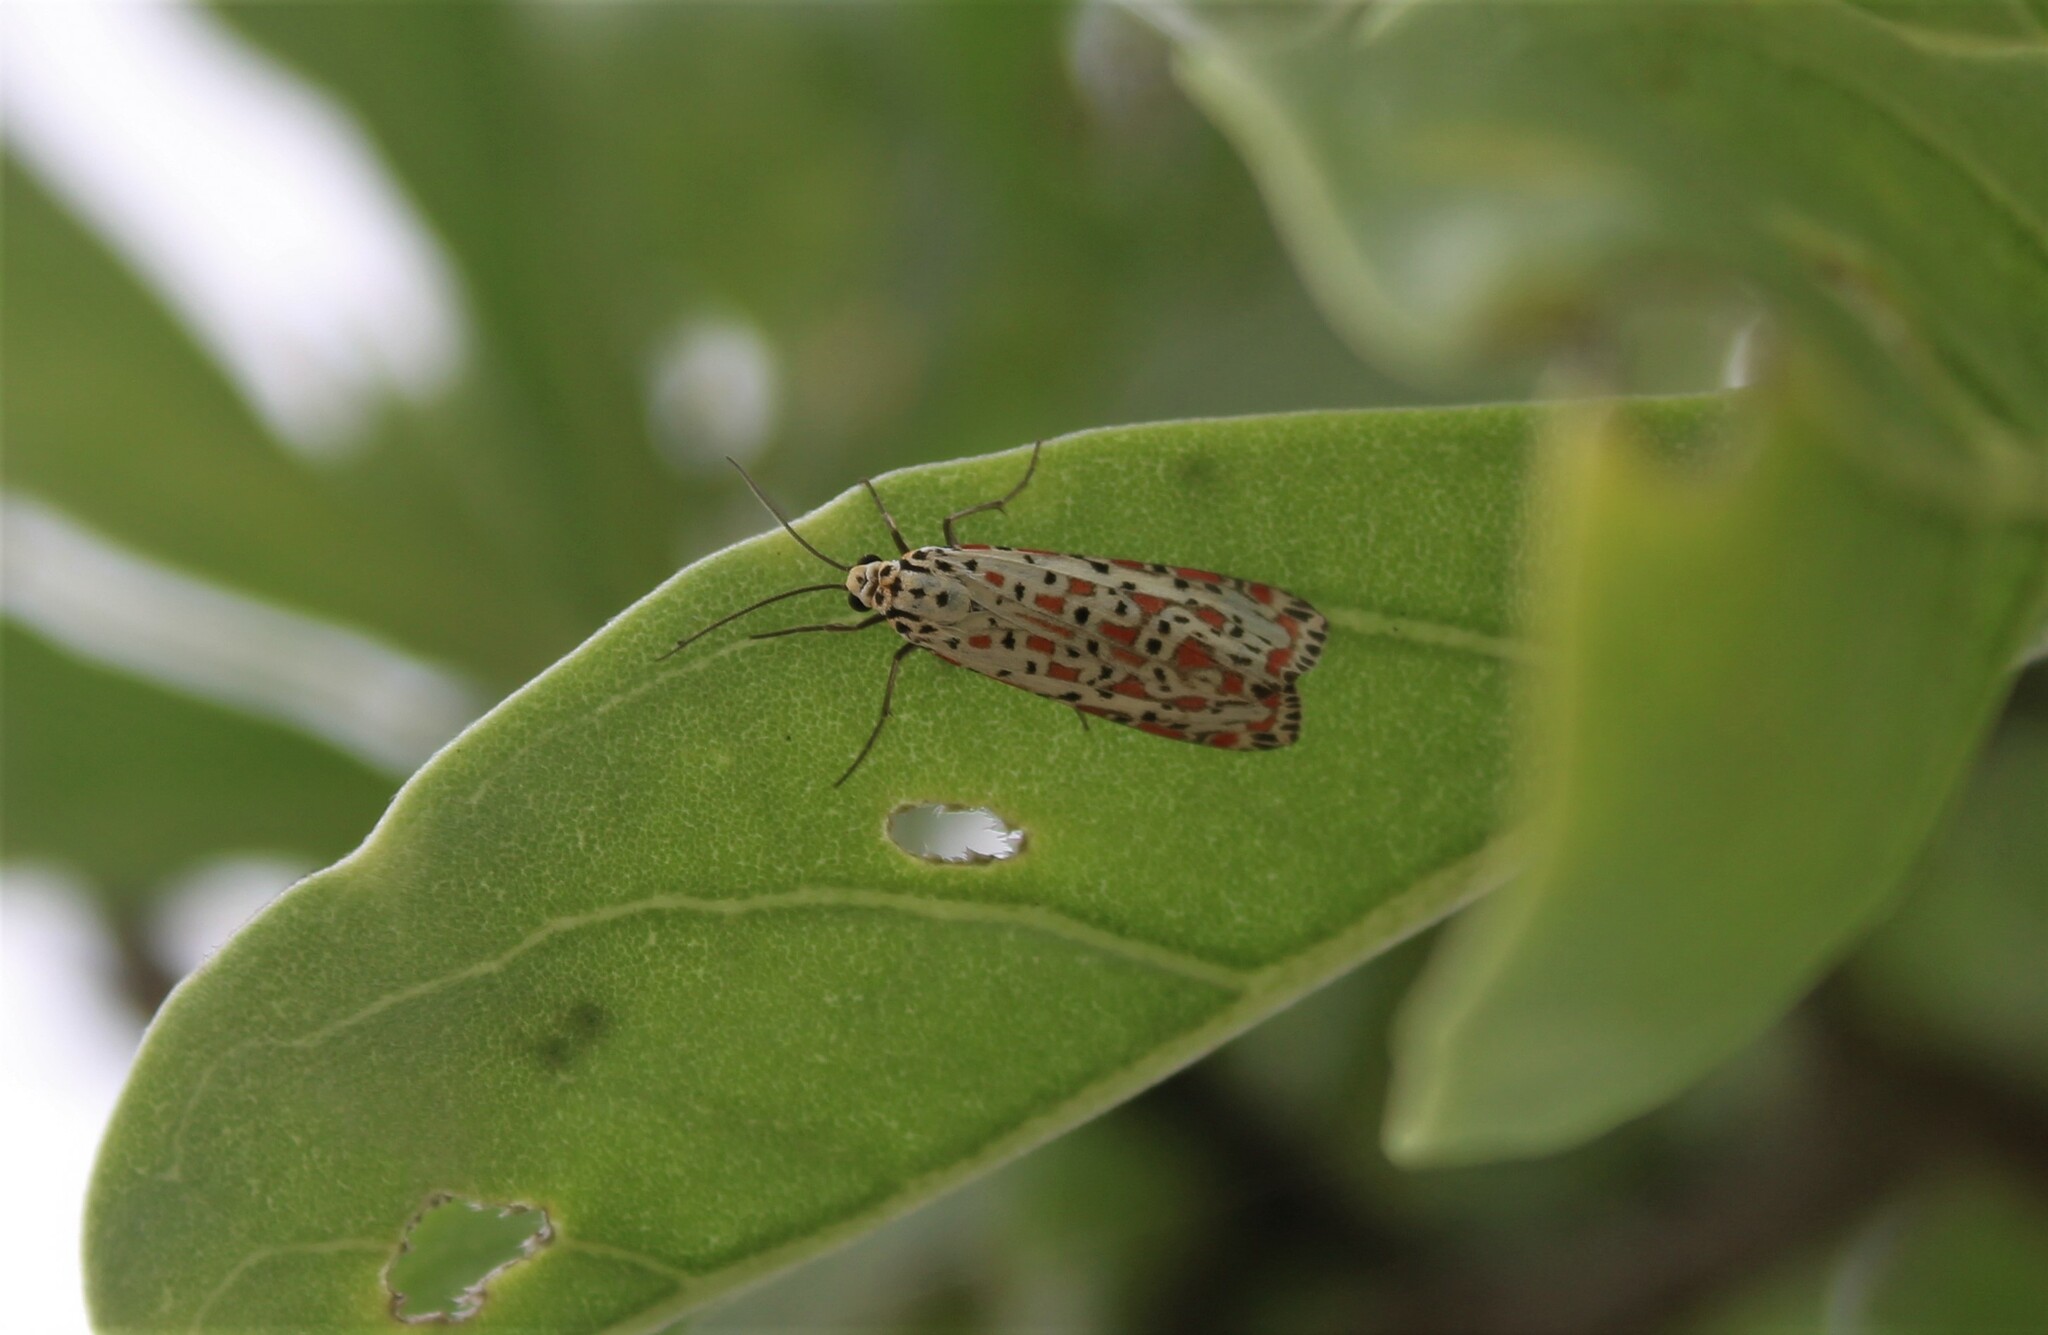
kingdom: Animalia
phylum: Arthropoda
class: Insecta
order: Lepidoptera
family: Erebidae
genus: Utetheisa
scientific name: Utetheisa pulchelloides
